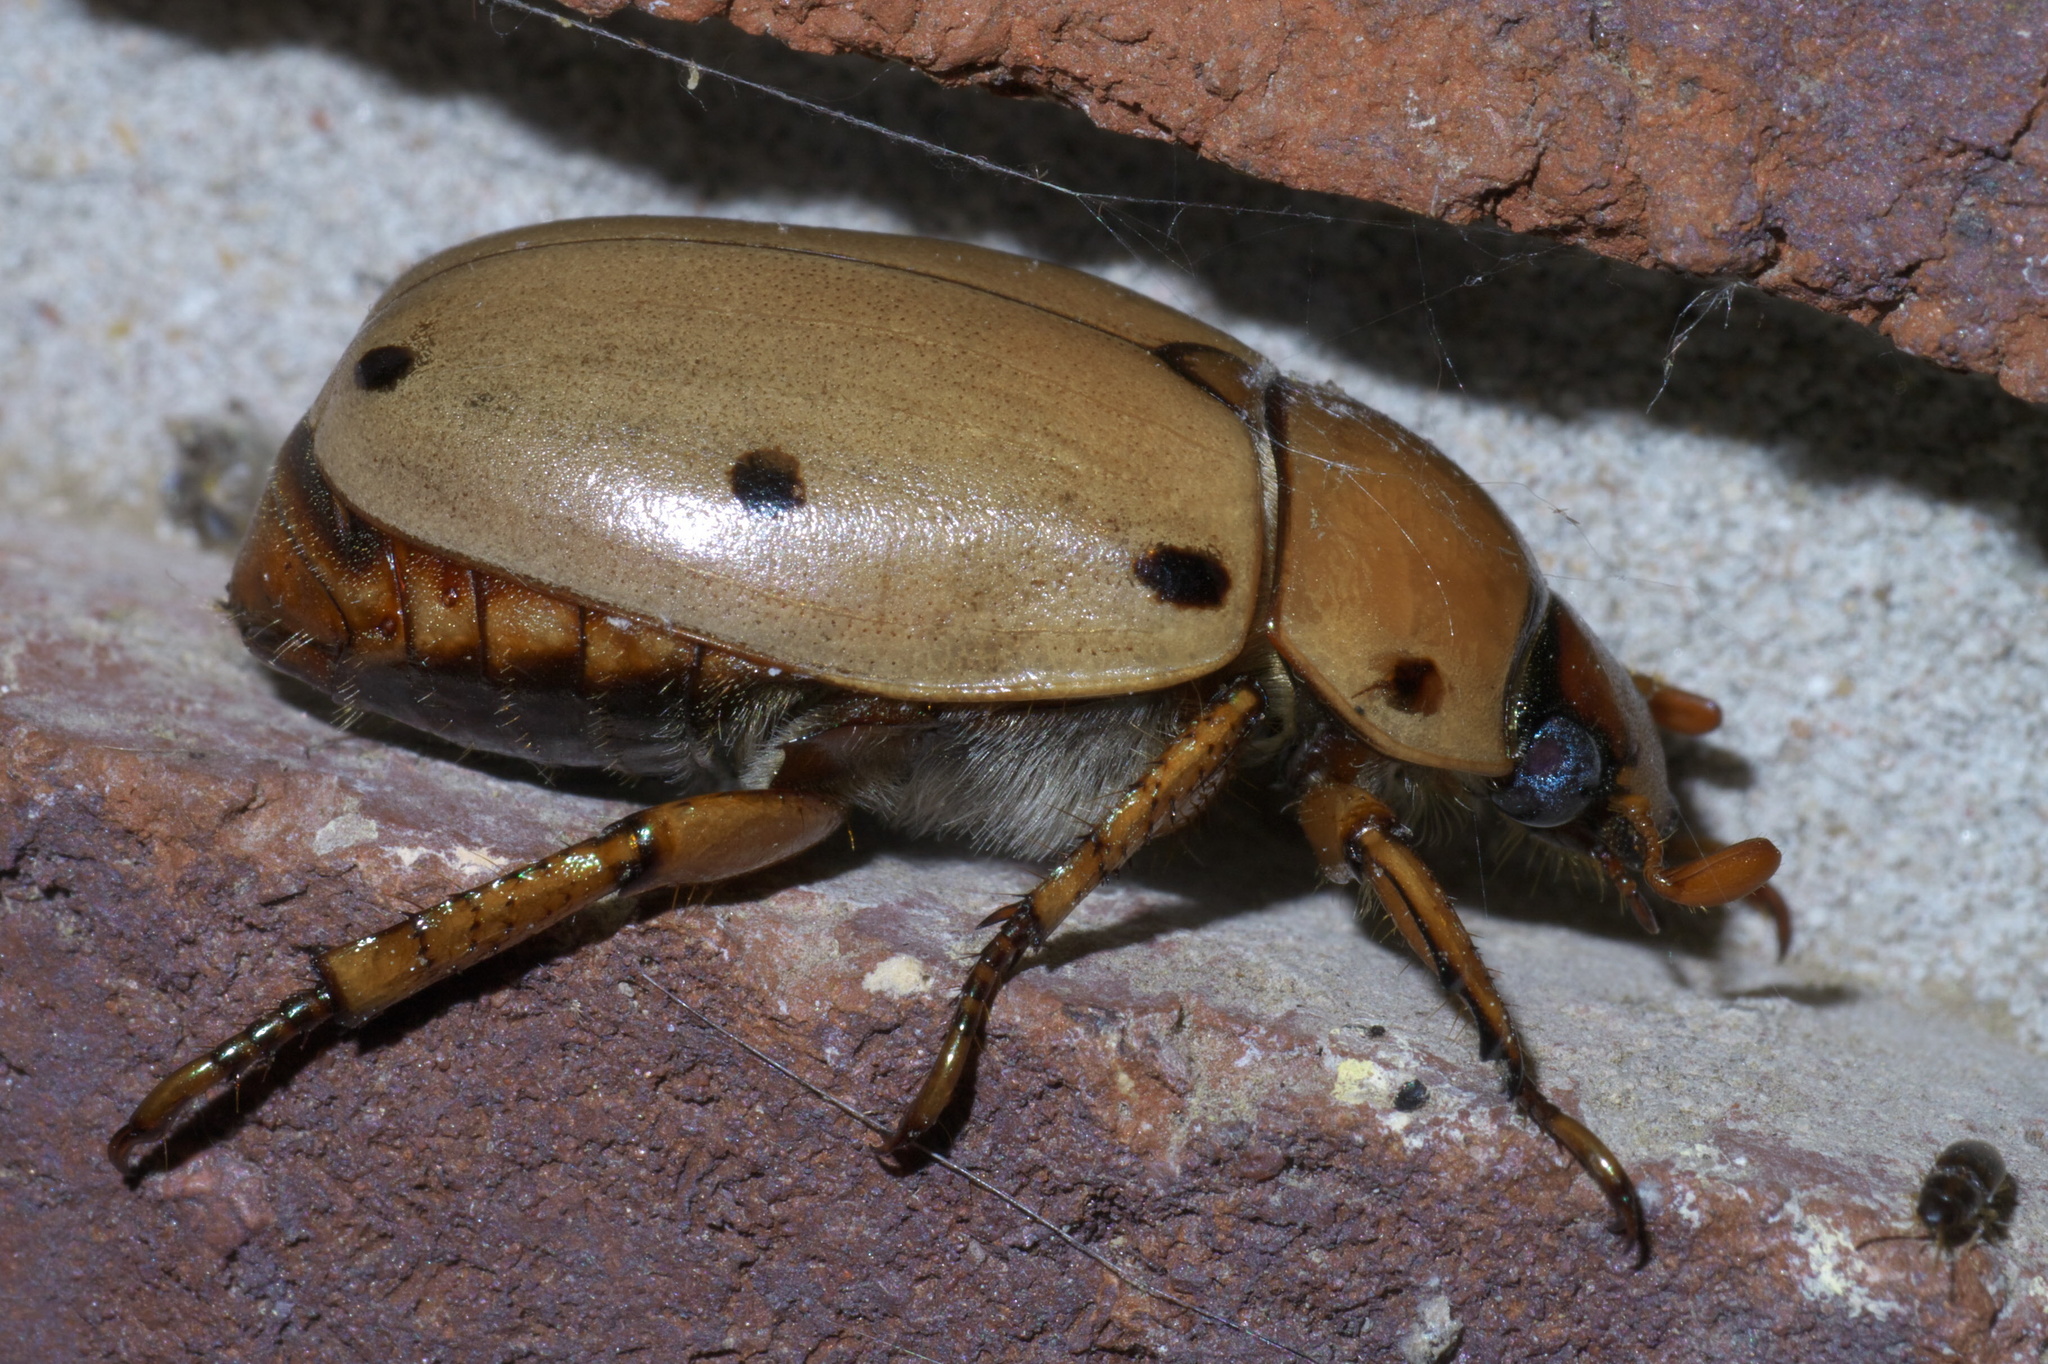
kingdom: Animalia
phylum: Arthropoda
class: Insecta
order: Coleoptera
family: Scarabaeidae
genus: Pelidnota
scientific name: Pelidnota punctata
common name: Grapevine beetle
